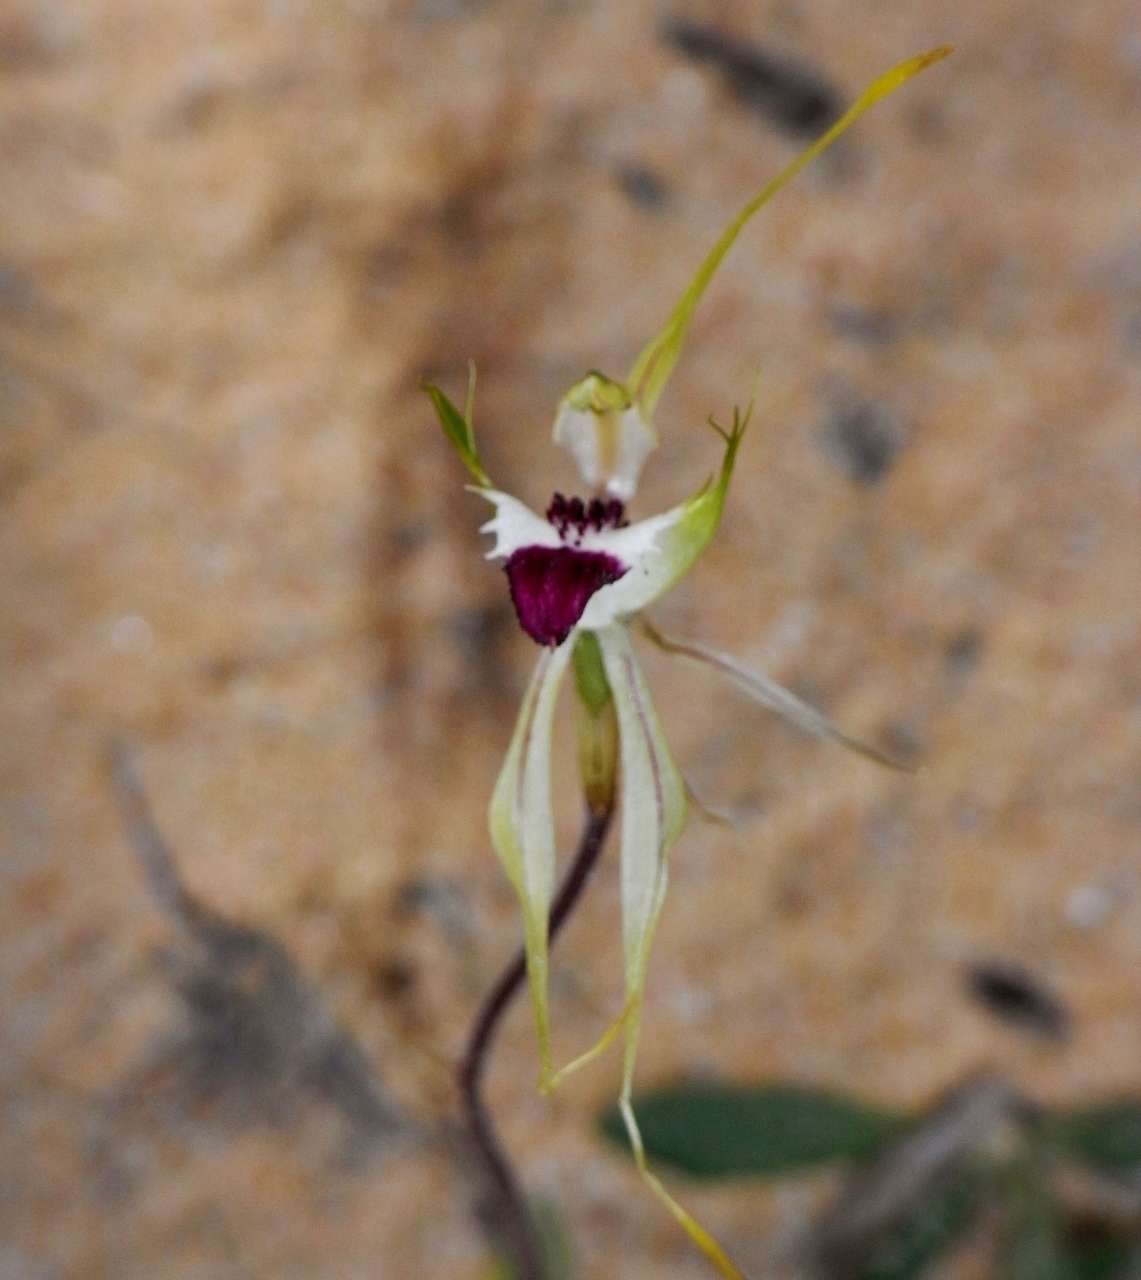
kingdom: Plantae
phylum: Tracheophyta
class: Liliopsida
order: Asparagales
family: Orchidaceae
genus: Caladenia
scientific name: Caladenia verrucosa
